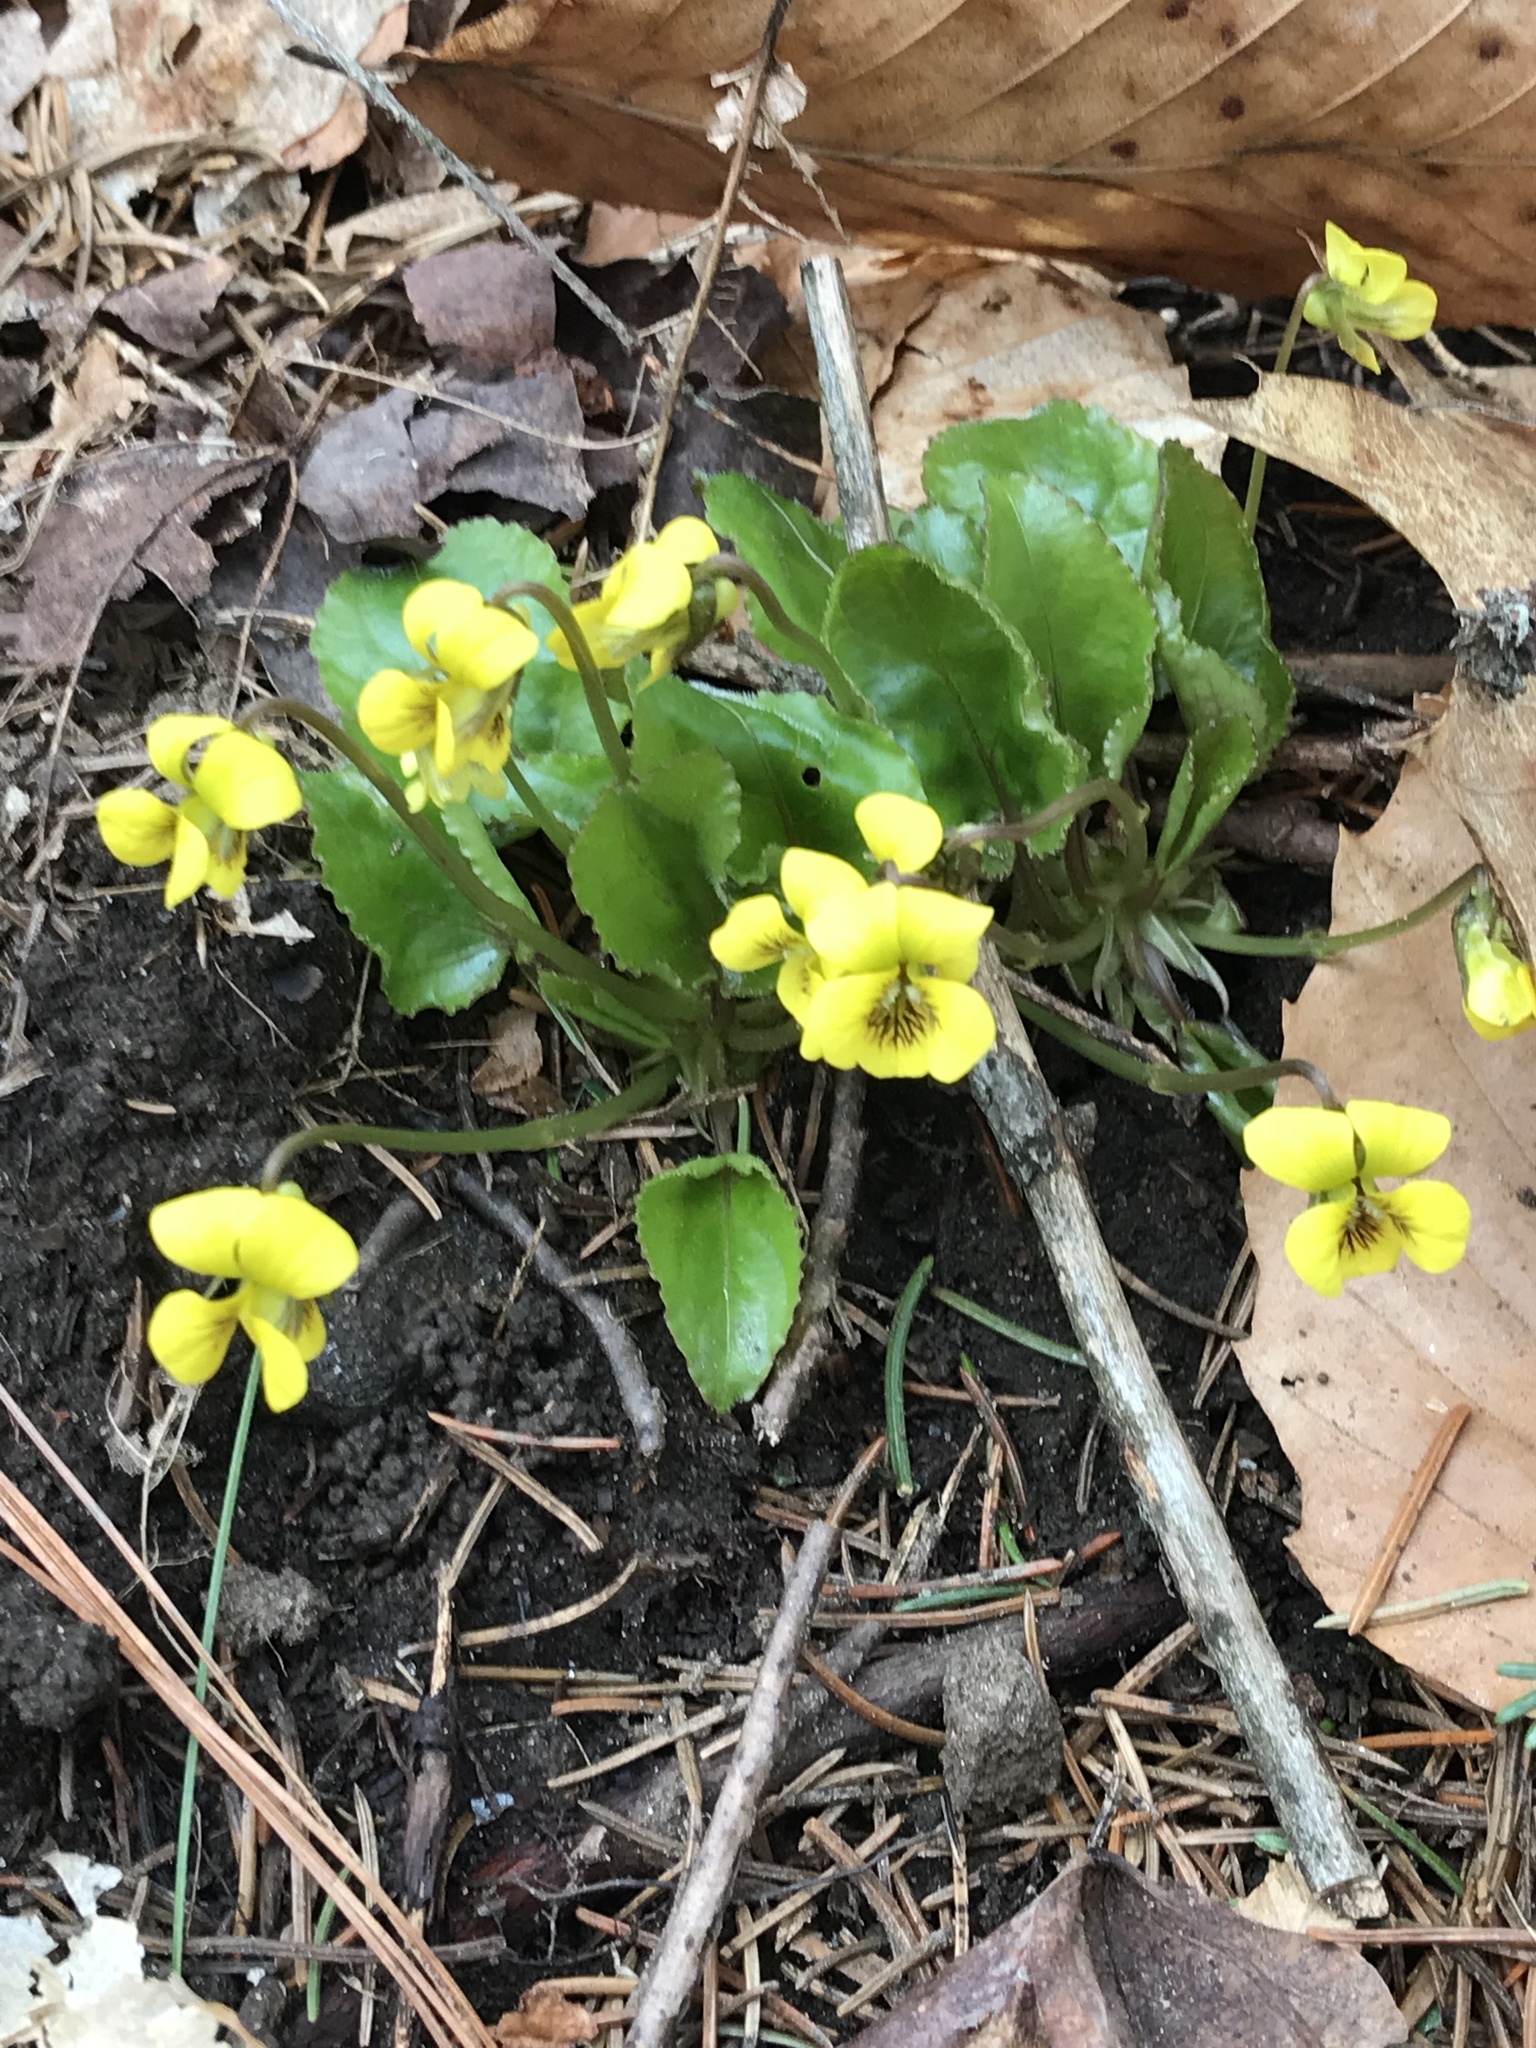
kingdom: Plantae
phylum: Tracheophyta
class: Magnoliopsida
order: Malpighiales
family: Violaceae
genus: Viola
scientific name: Viola rotundifolia
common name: Early yellow violet
